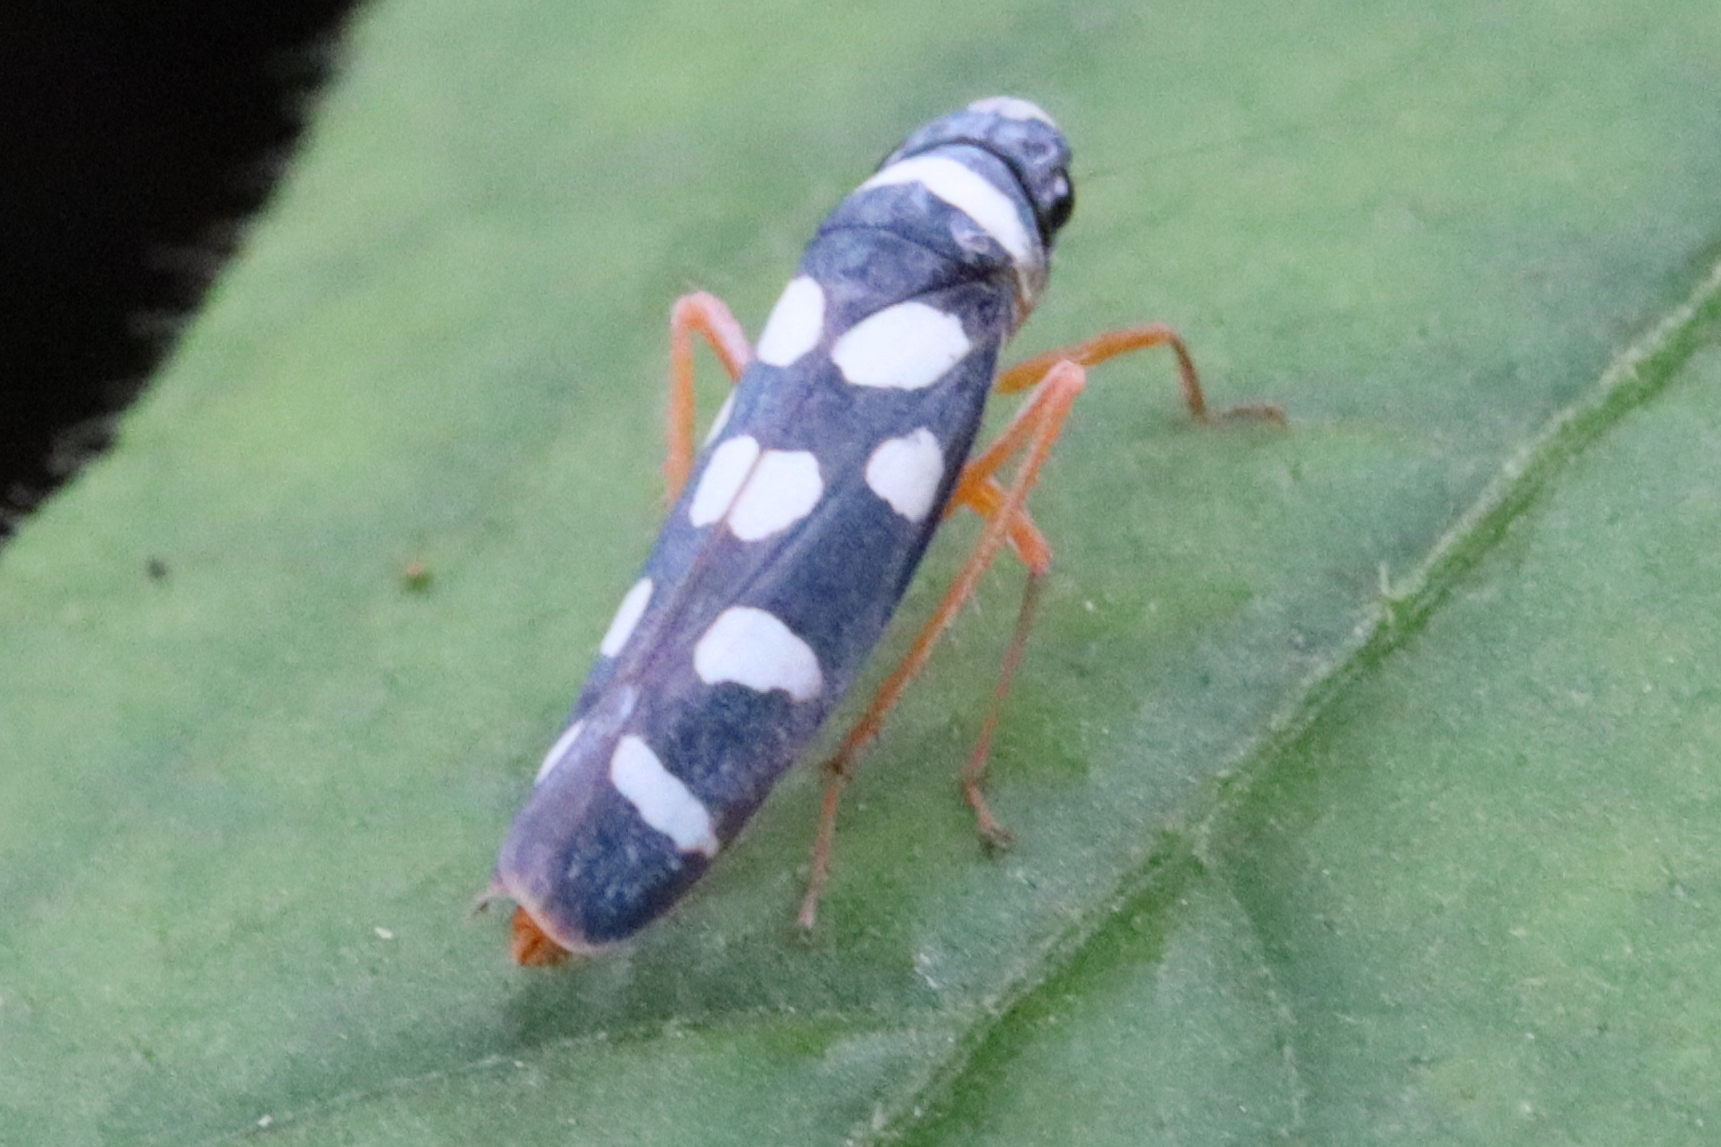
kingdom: Animalia
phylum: Arthropoda
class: Insecta
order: Hemiptera
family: Cicadellidae
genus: Amblyscartidia
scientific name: Amblyscartidia incredibilis
